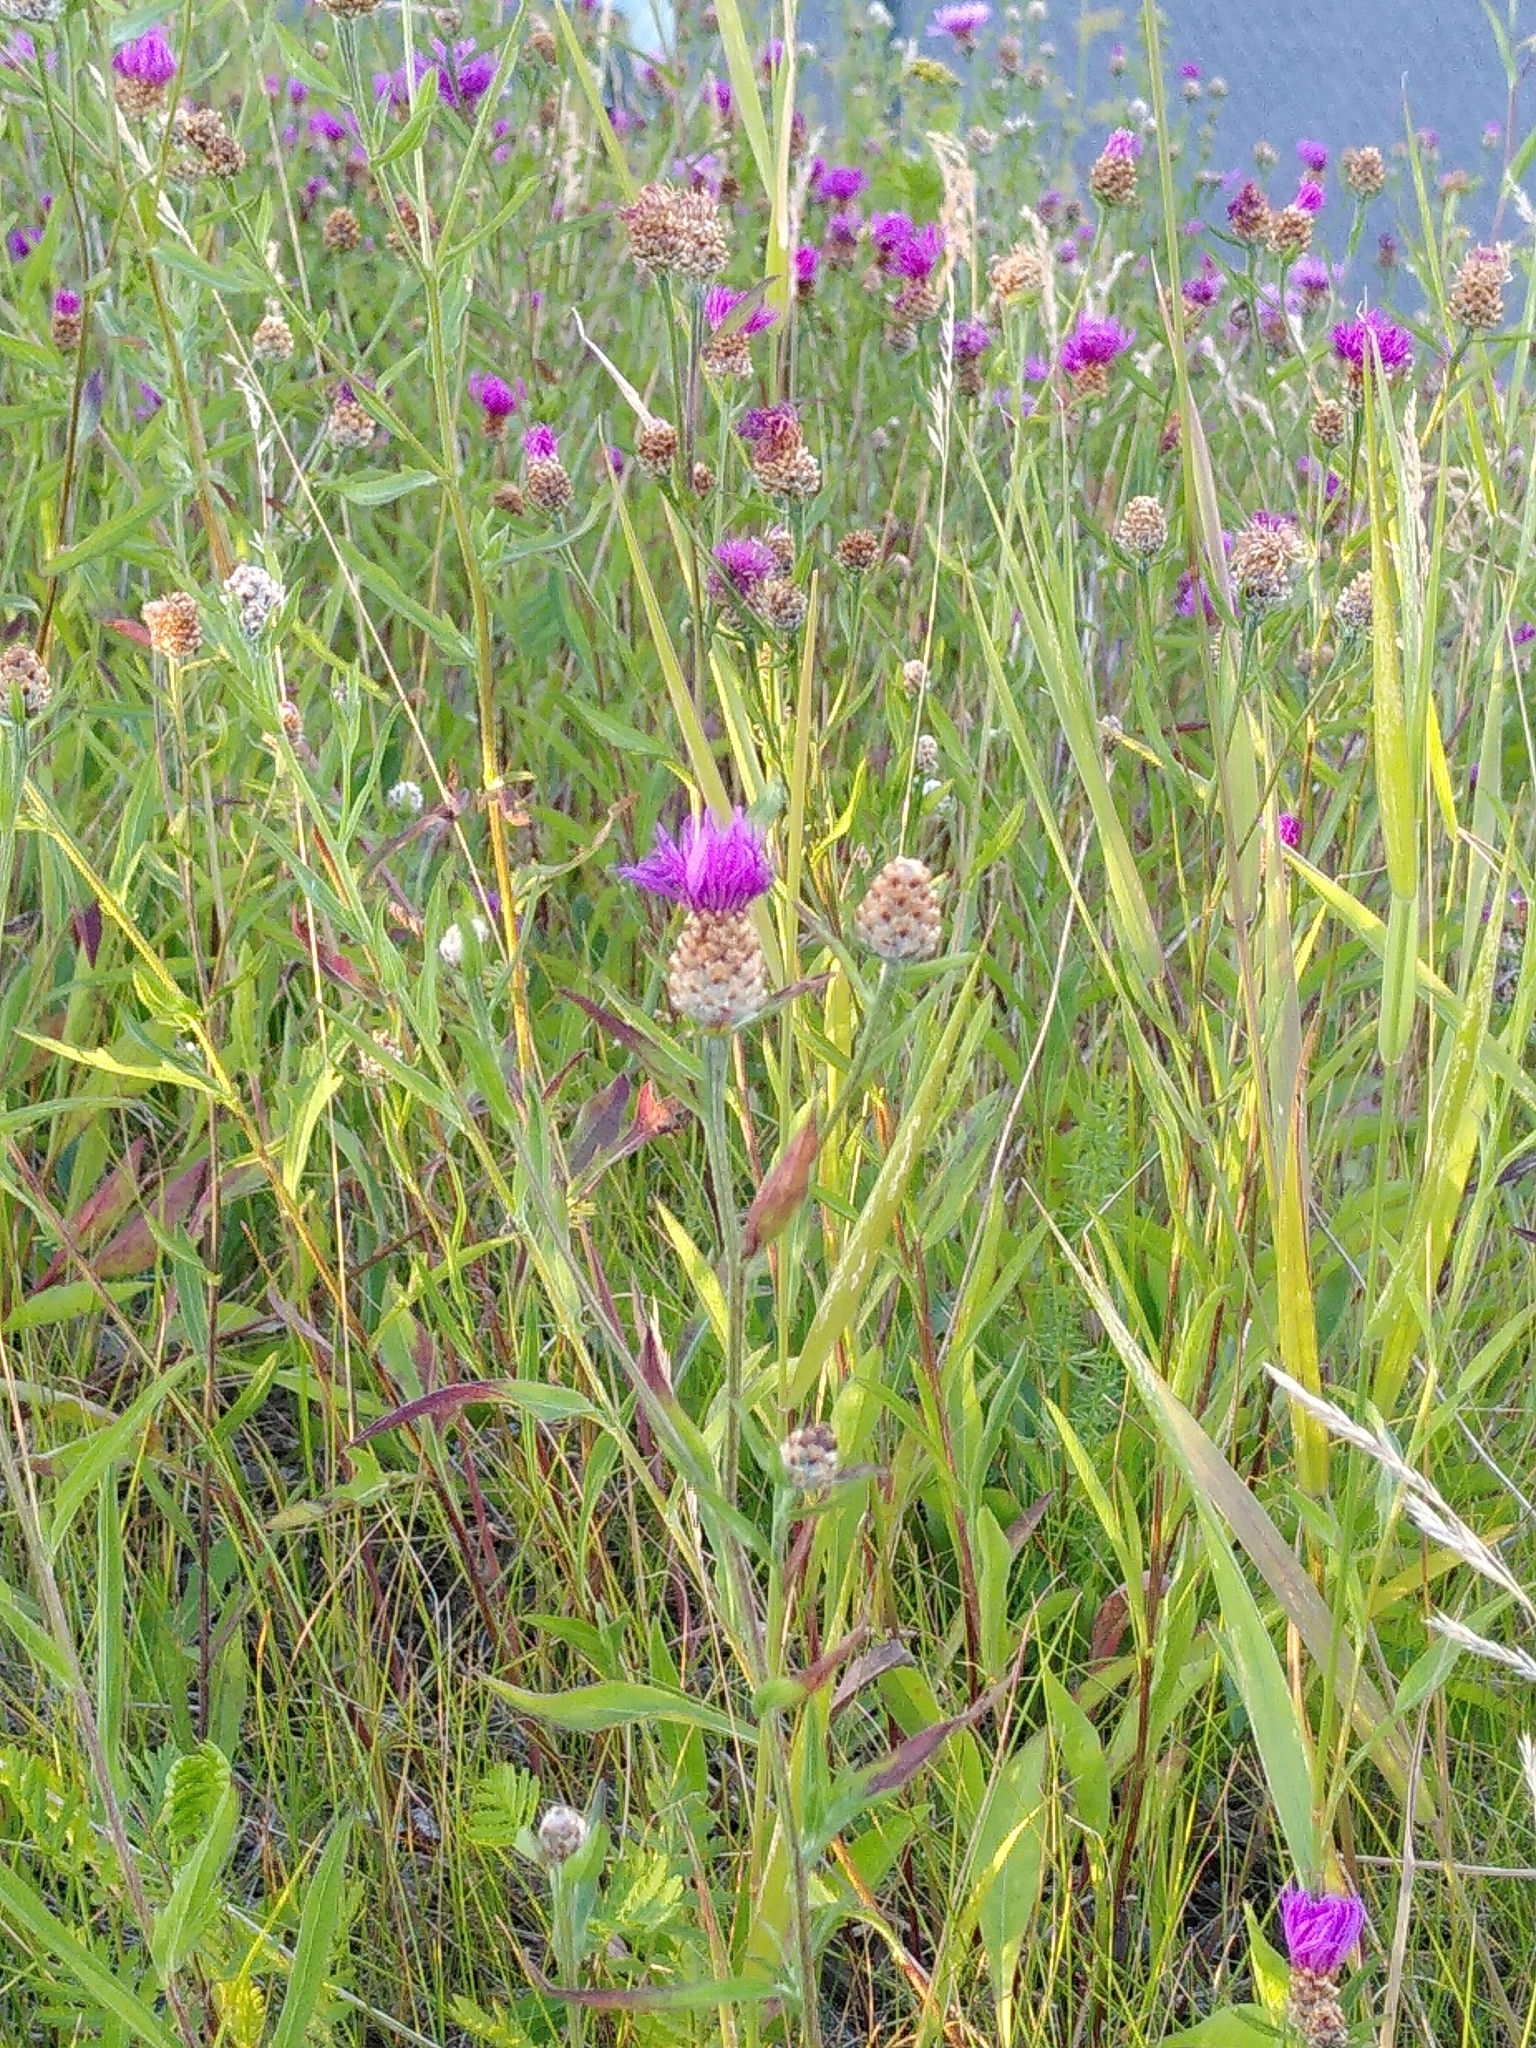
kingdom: Plantae
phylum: Tracheophyta
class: Magnoliopsida
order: Asterales
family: Asteraceae
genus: Centaurea
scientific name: Centaurea jacea
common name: Brown knapweed
